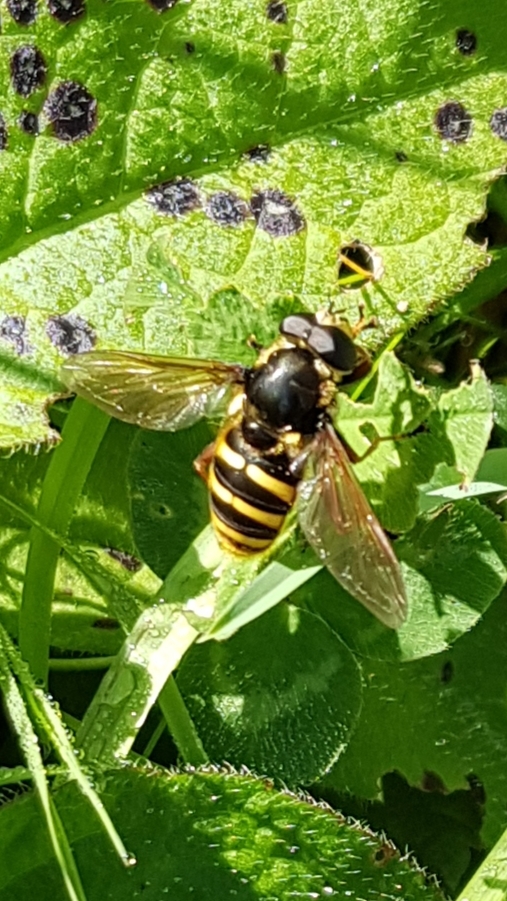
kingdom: Animalia
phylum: Arthropoda
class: Insecta
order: Diptera
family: Syrphidae
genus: Sericomyia
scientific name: Sericomyia silentis
